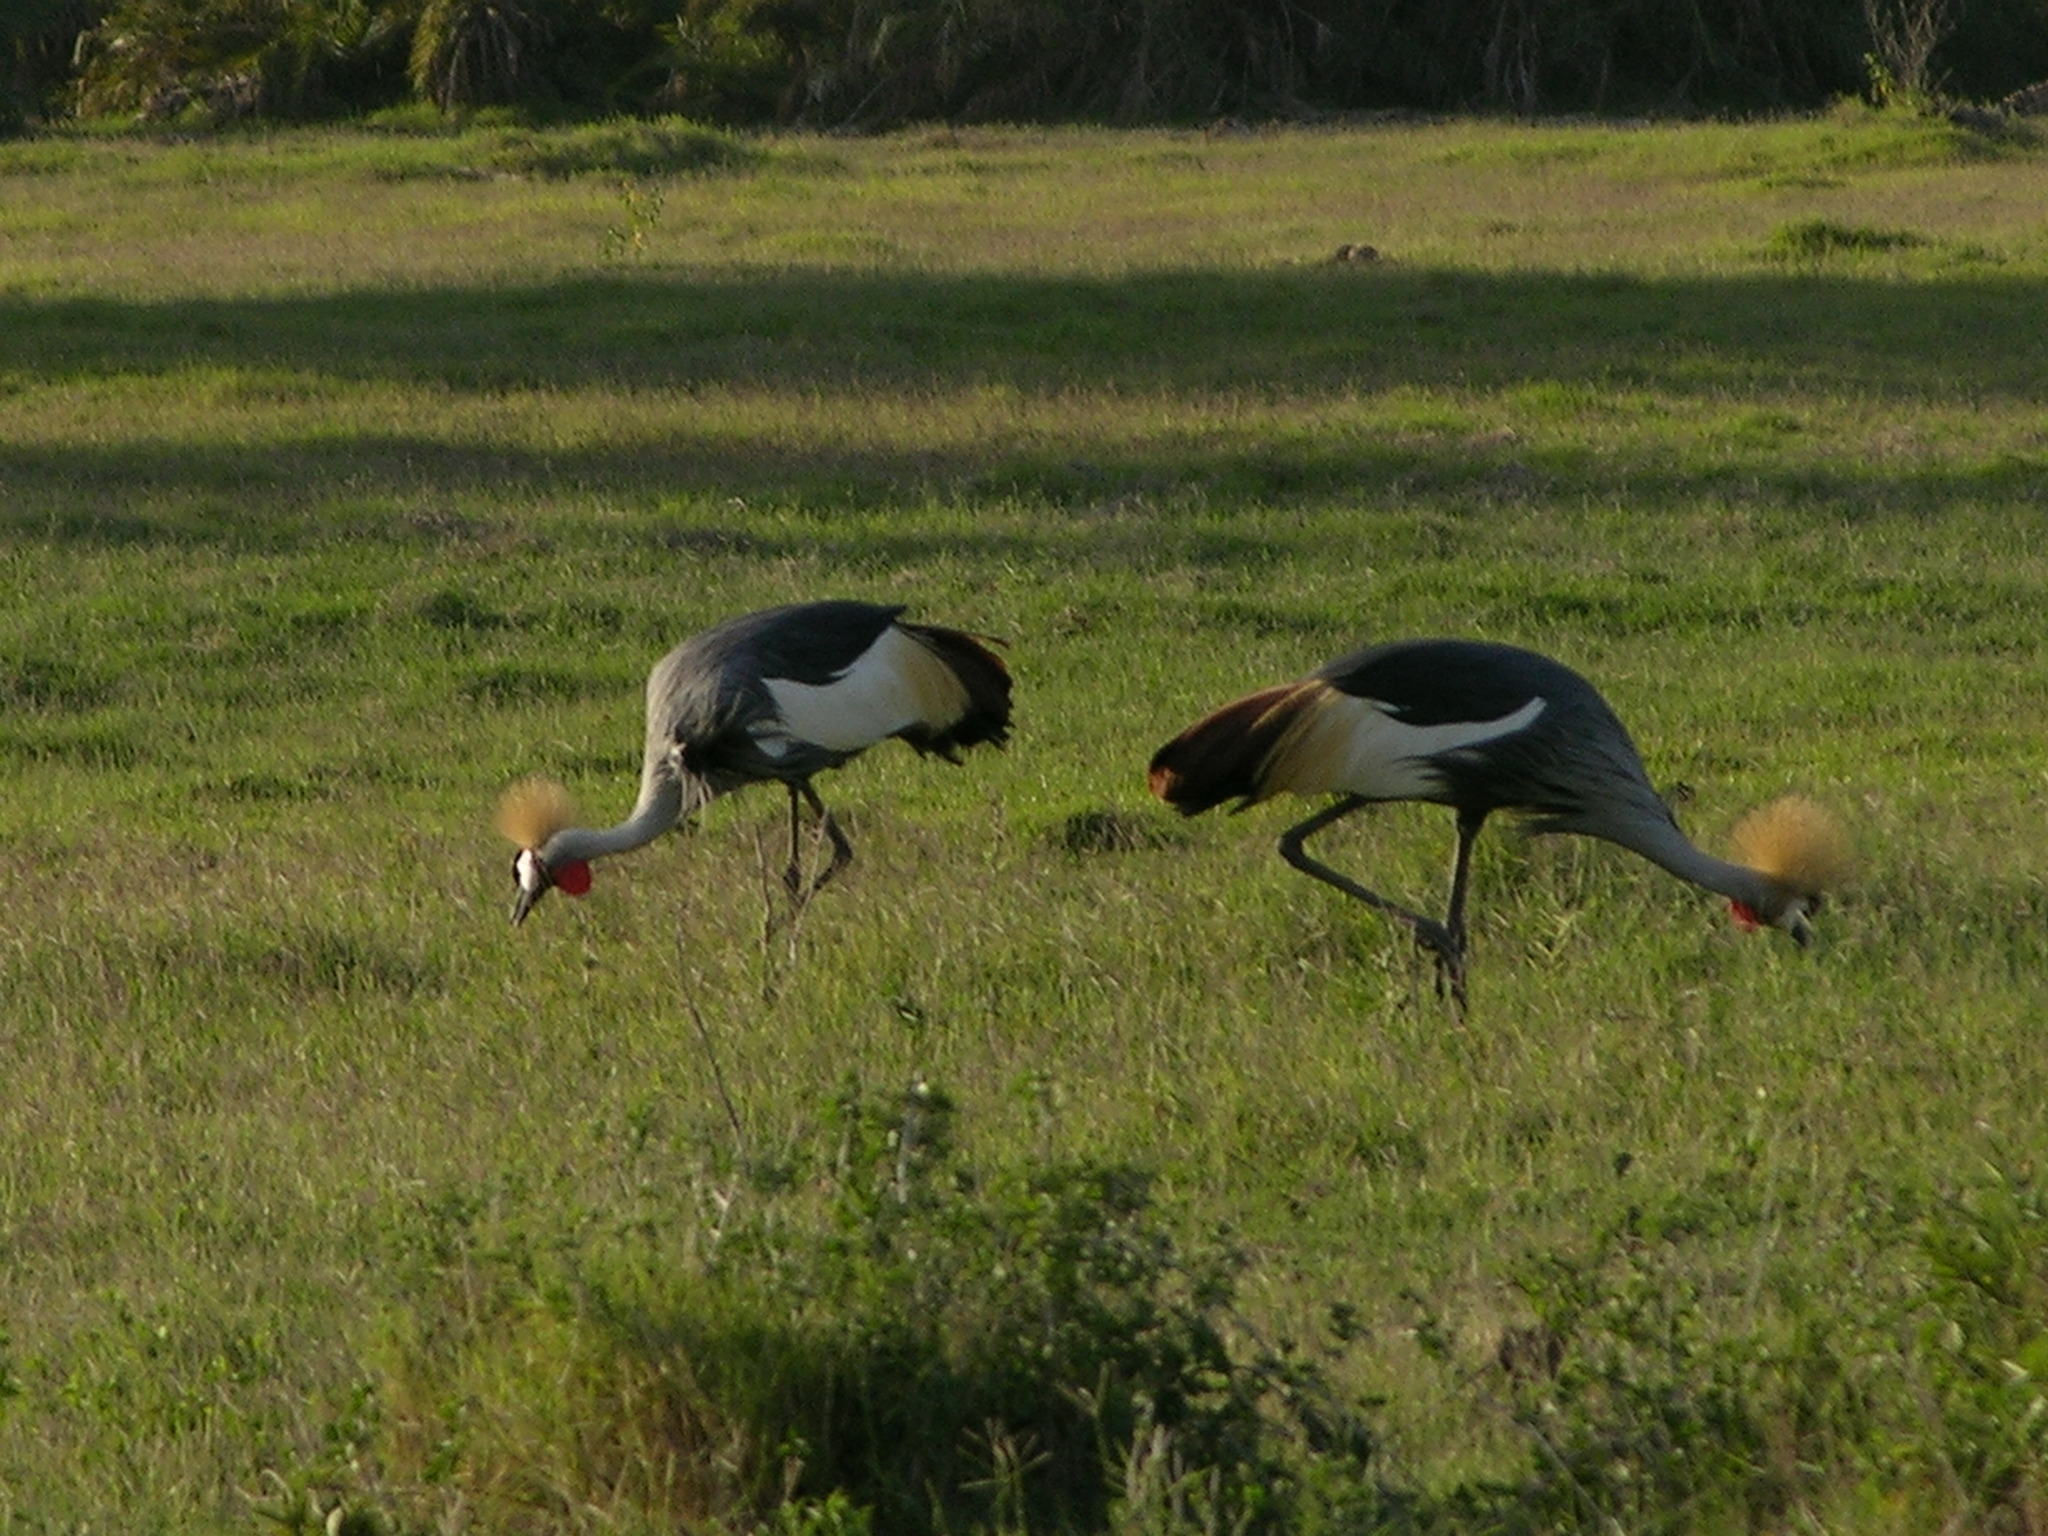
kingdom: Animalia
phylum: Chordata
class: Aves
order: Gruiformes
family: Gruidae
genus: Balearica
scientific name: Balearica regulorum
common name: Grey crowned crane
